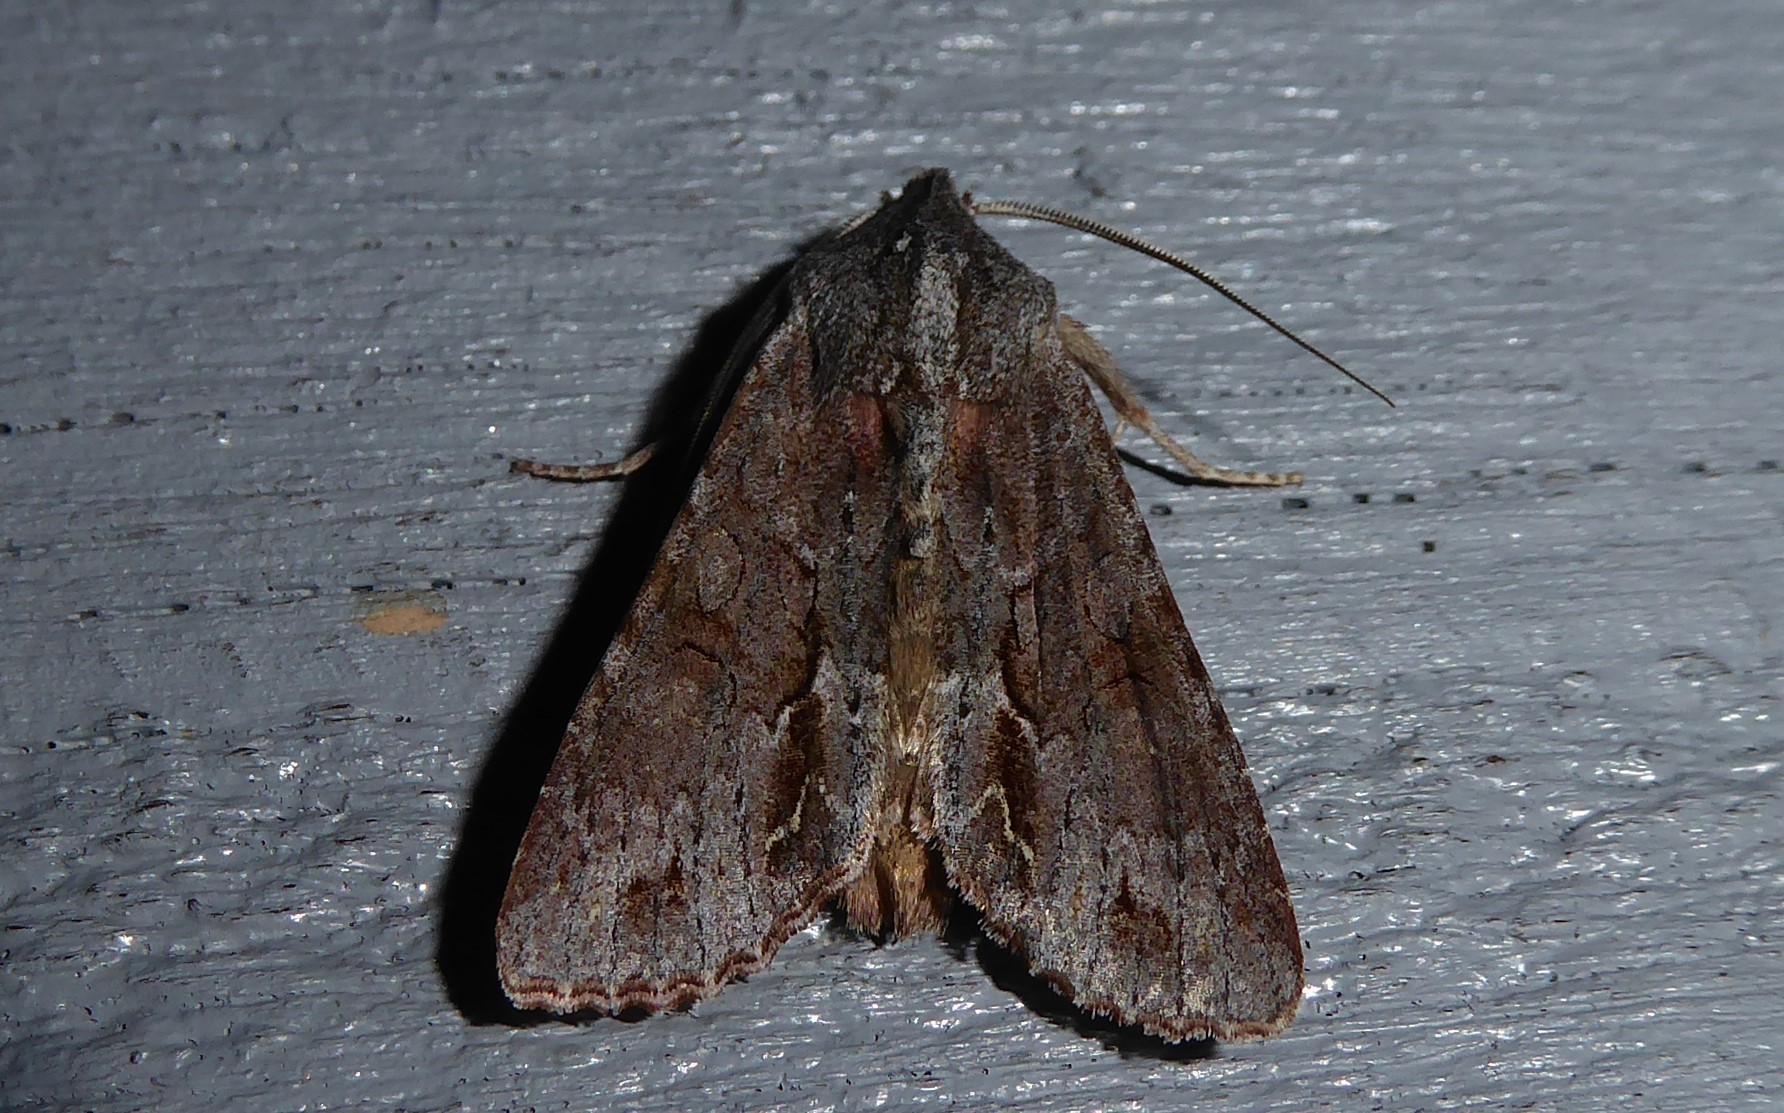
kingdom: Animalia
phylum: Arthropoda
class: Insecta
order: Lepidoptera
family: Noctuidae
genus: Ichneutica
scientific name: Ichneutica
